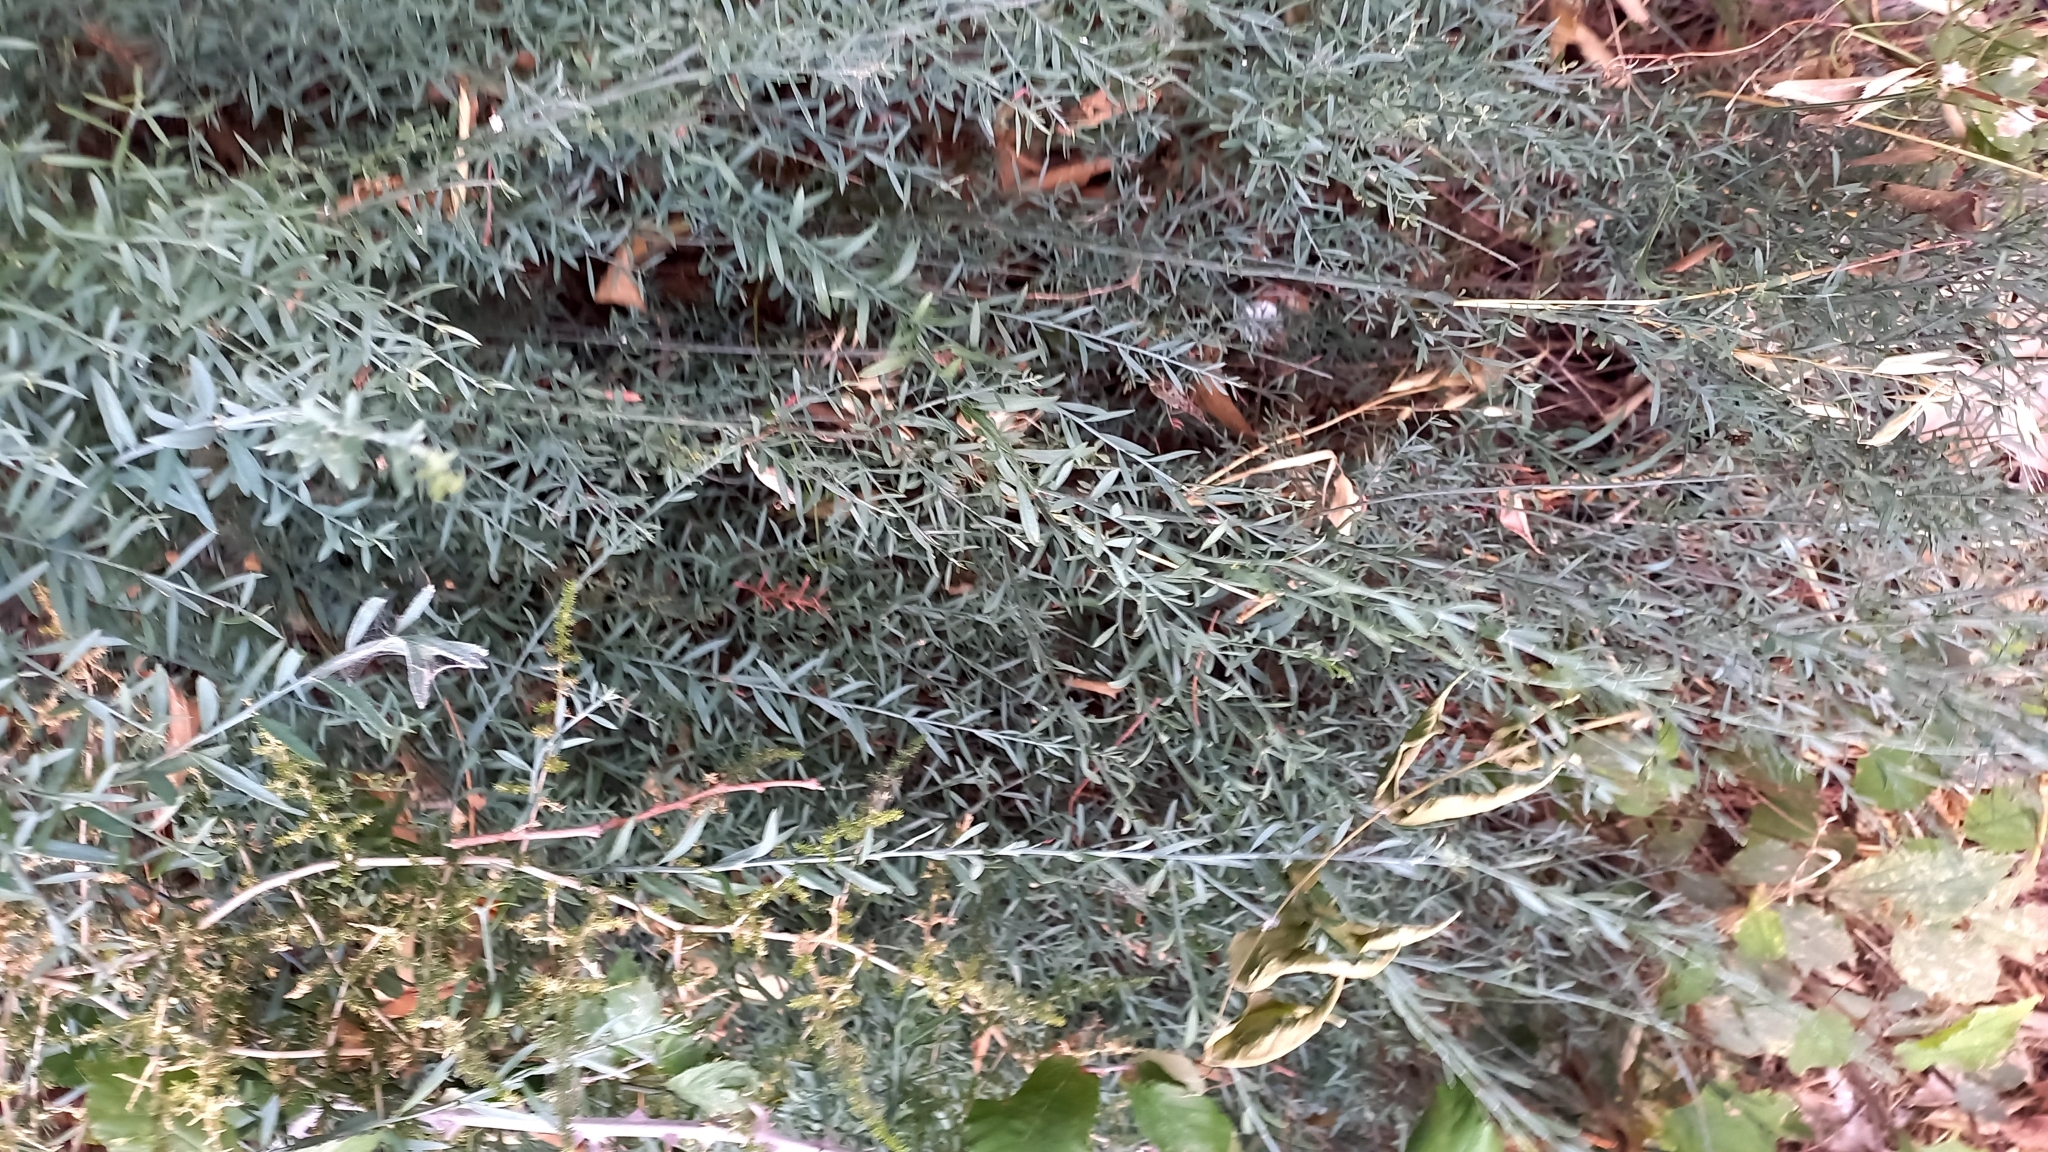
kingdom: Plantae
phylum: Tracheophyta
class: Magnoliopsida
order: Santalales
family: Santalaceae
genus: Osyris
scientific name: Osyris alba
